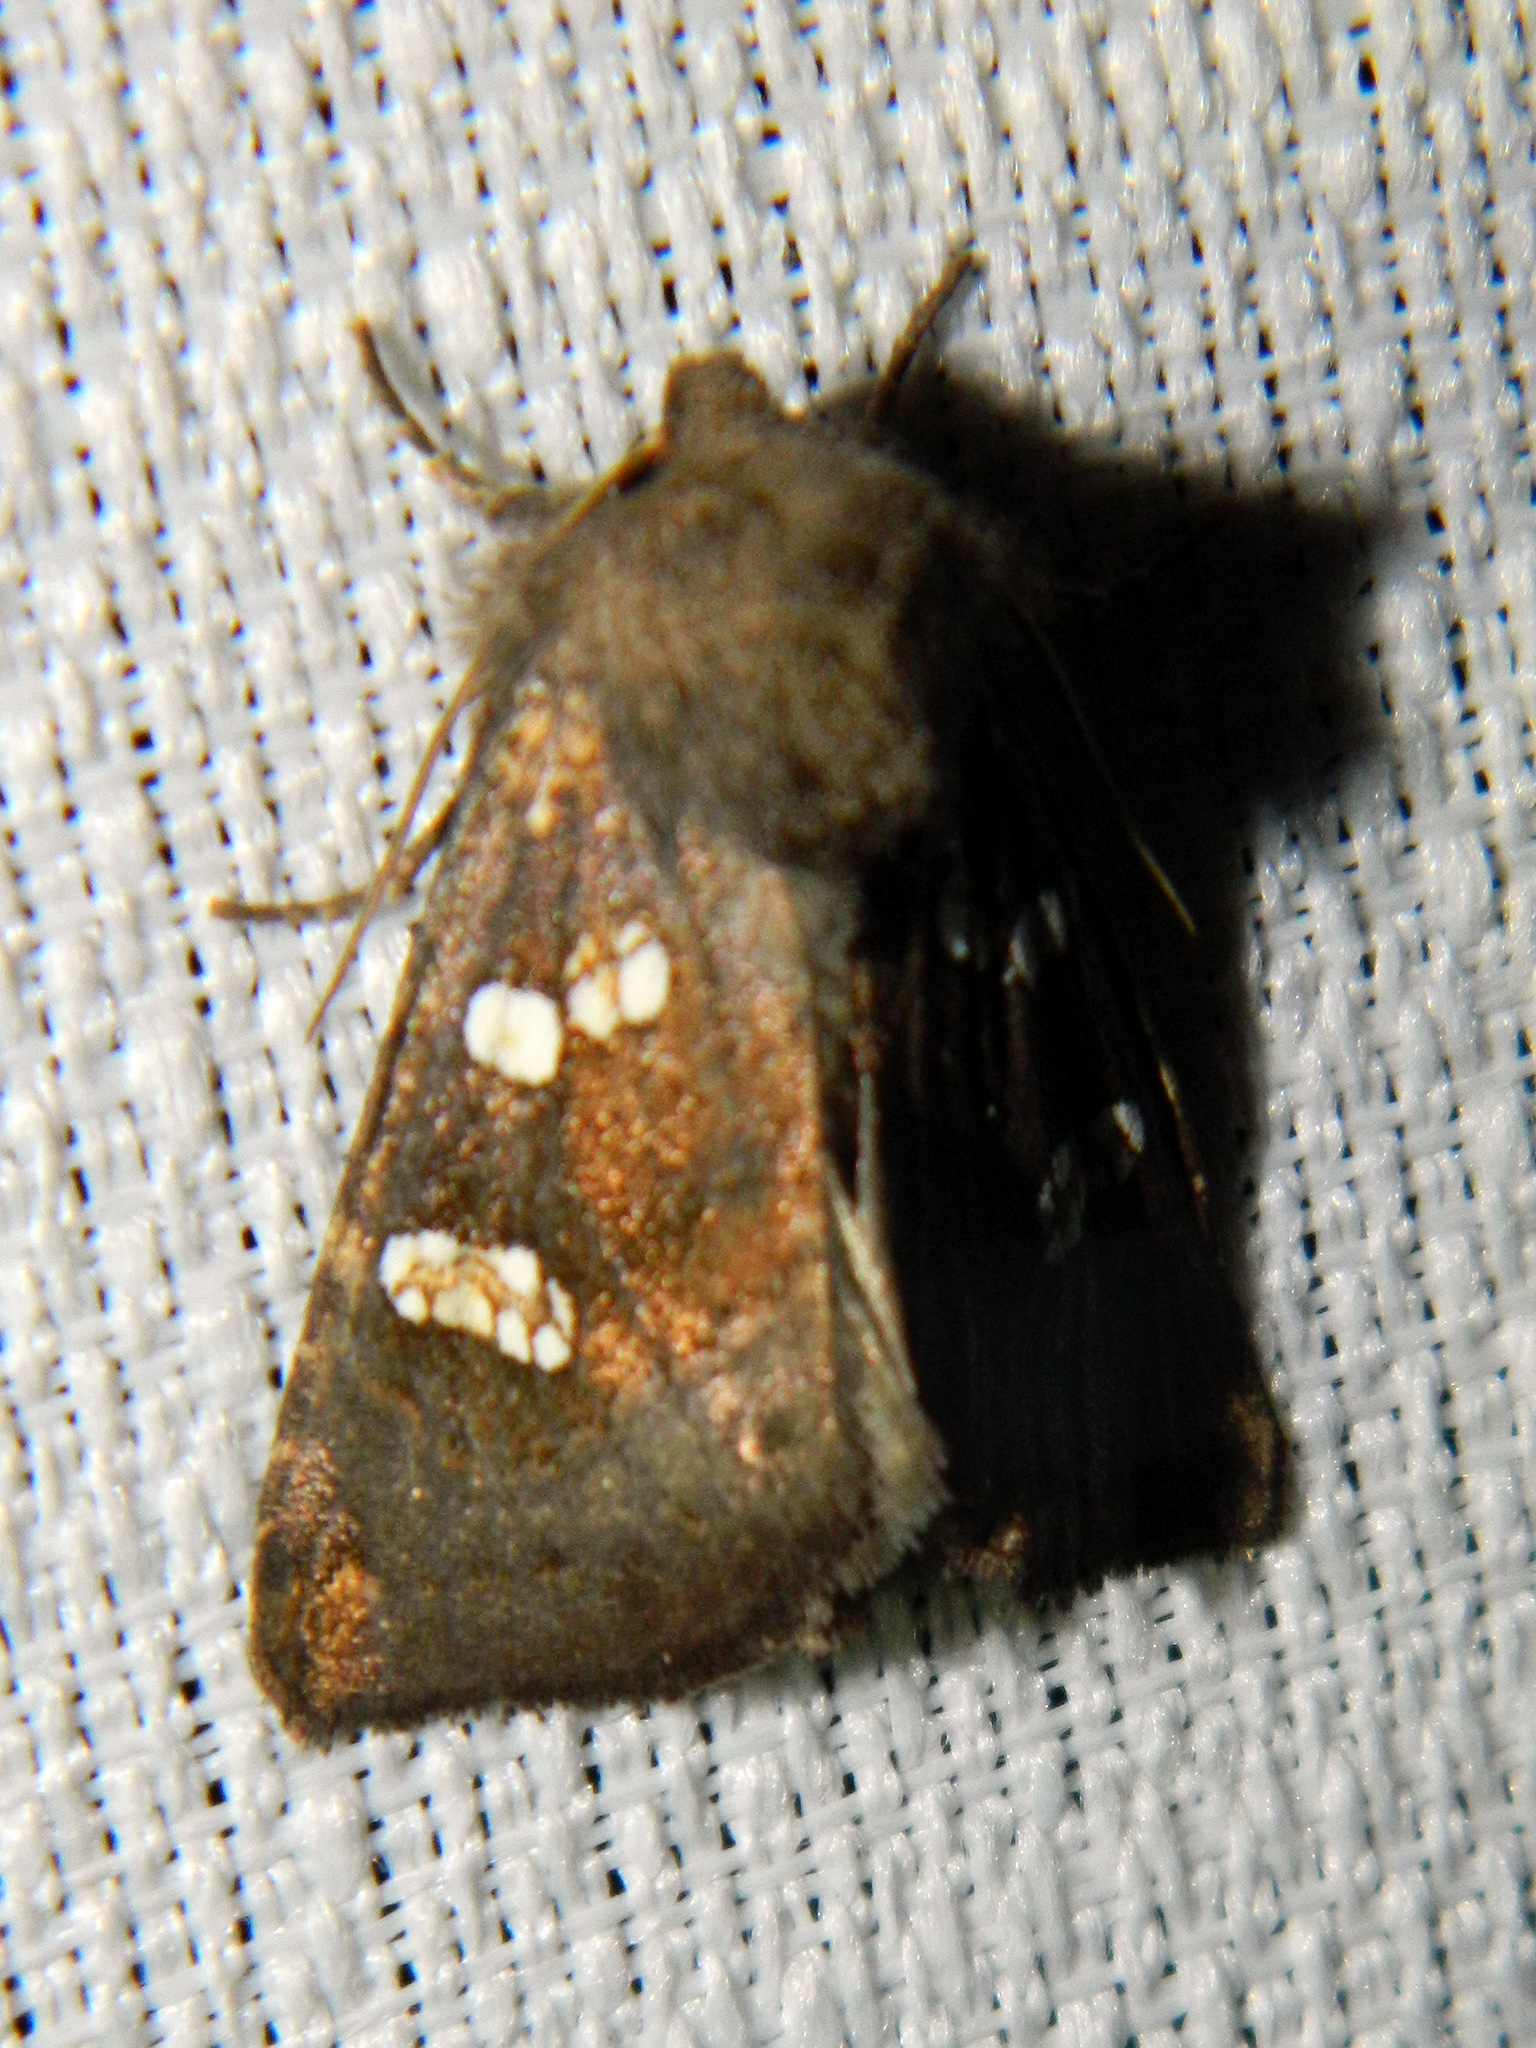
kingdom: Animalia
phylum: Arthropoda
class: Insecta
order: Lepidoptera
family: Noctuidae
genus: Papaipema
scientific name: Papaipema unimoda
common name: Meadow rue borer moth
